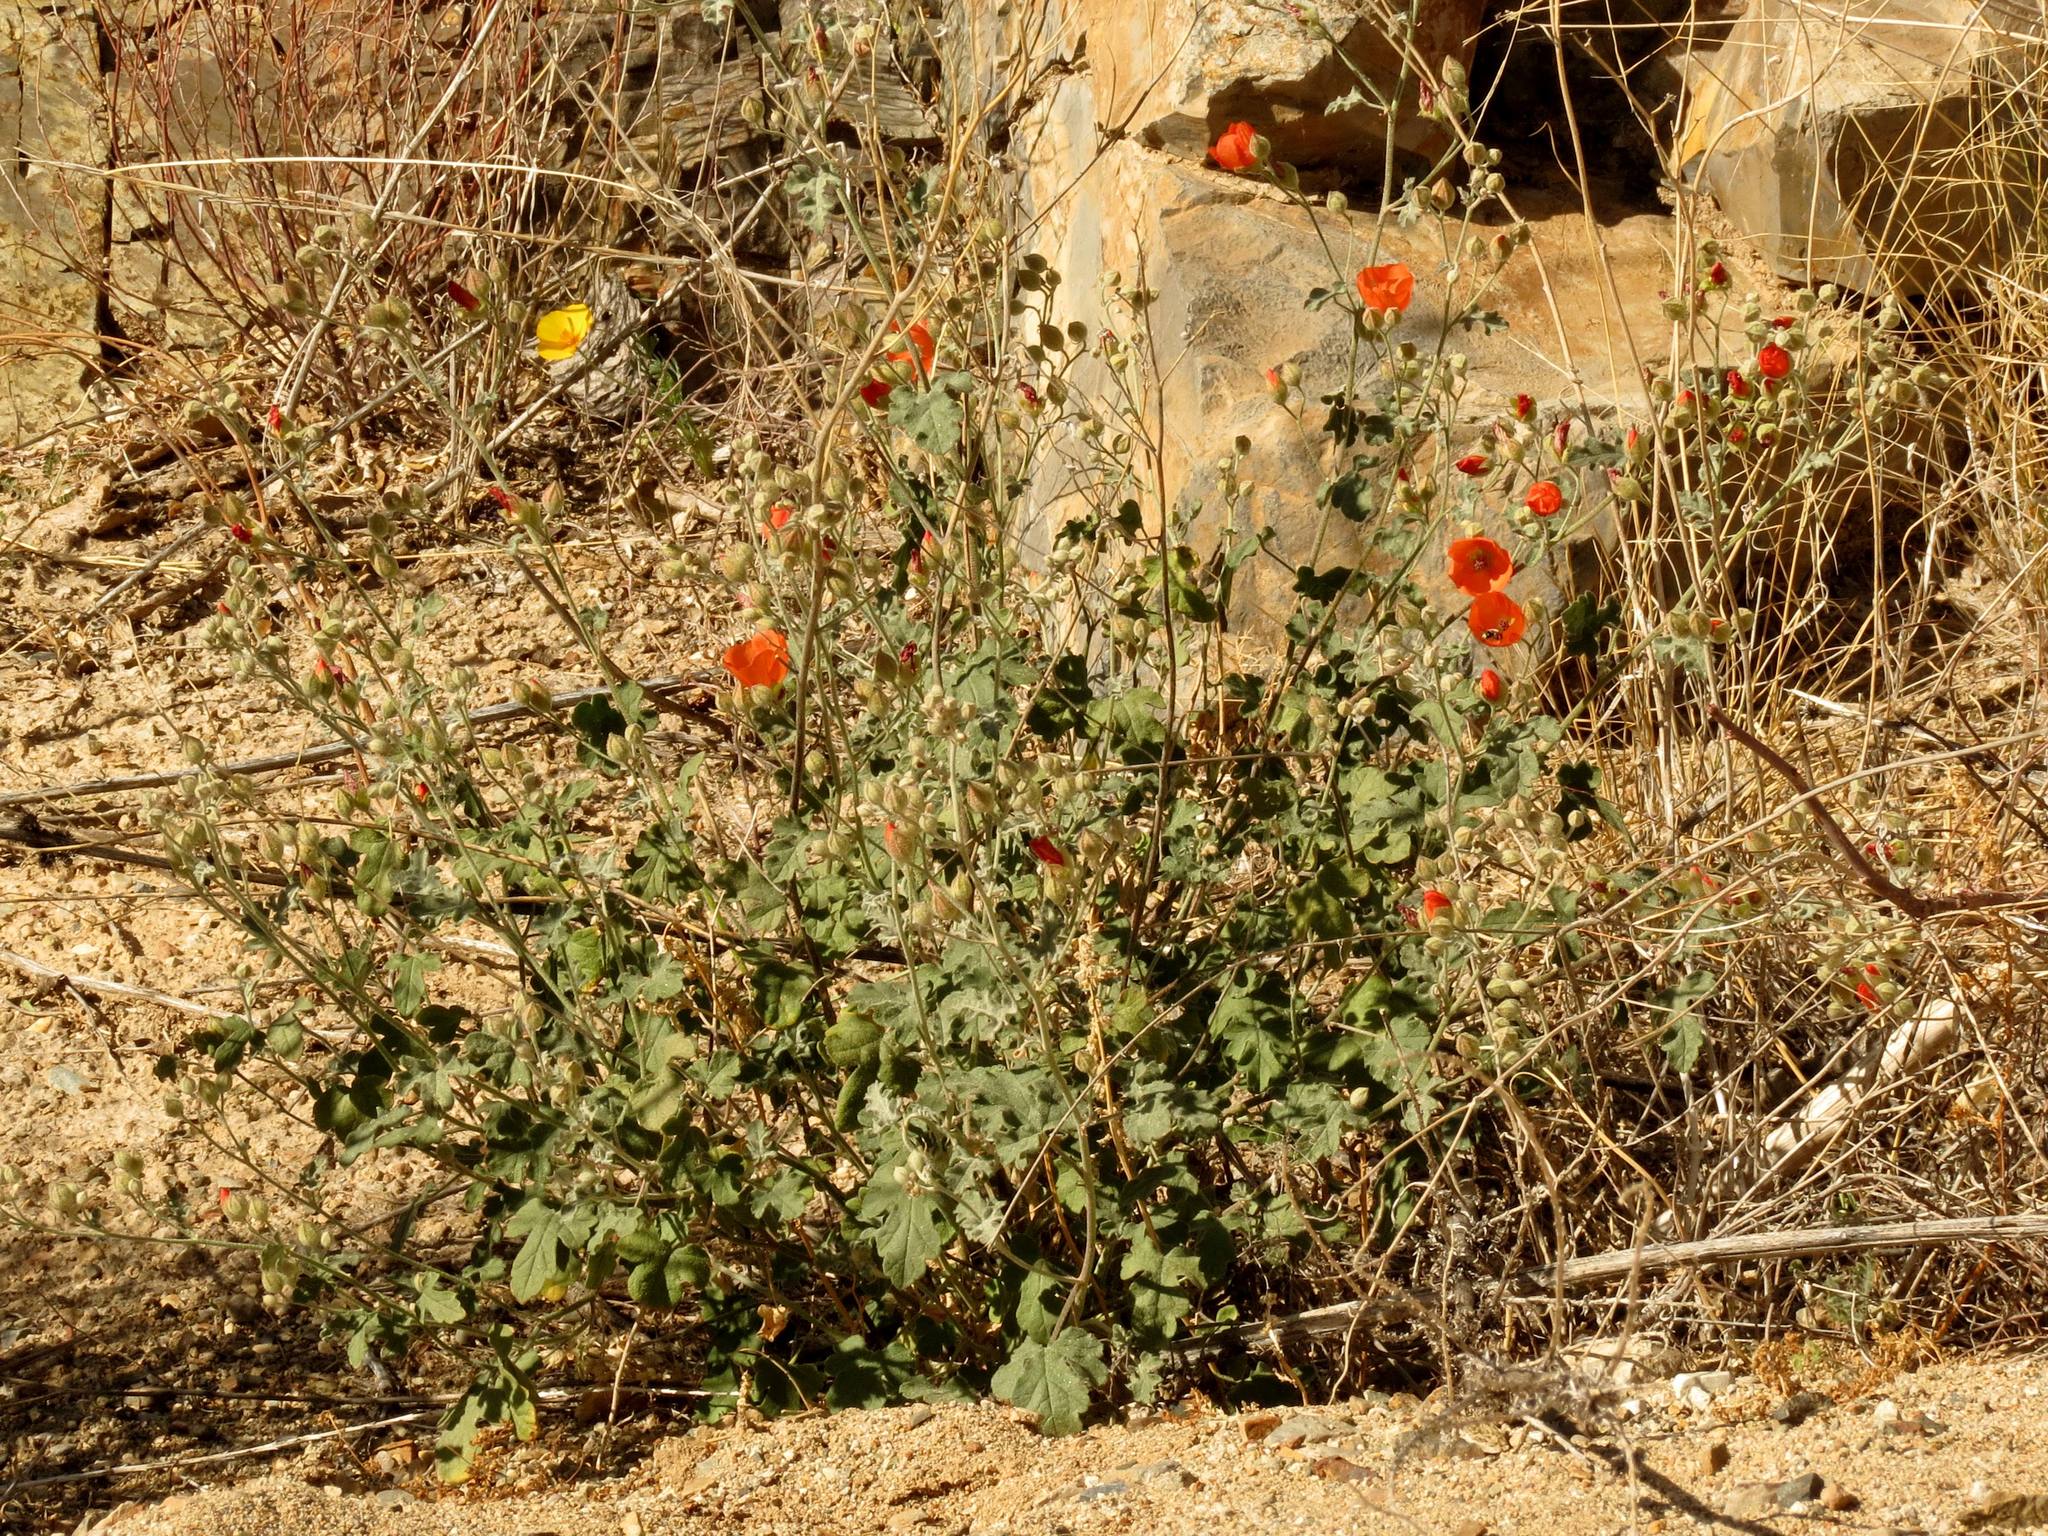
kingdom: Plantae
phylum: Tracheophyta
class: Magnoliopsida
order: Malvales
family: Malvaceae
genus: Sphaeralcea
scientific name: Sphaeralcea ambigua
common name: Apricot globe-mallow
